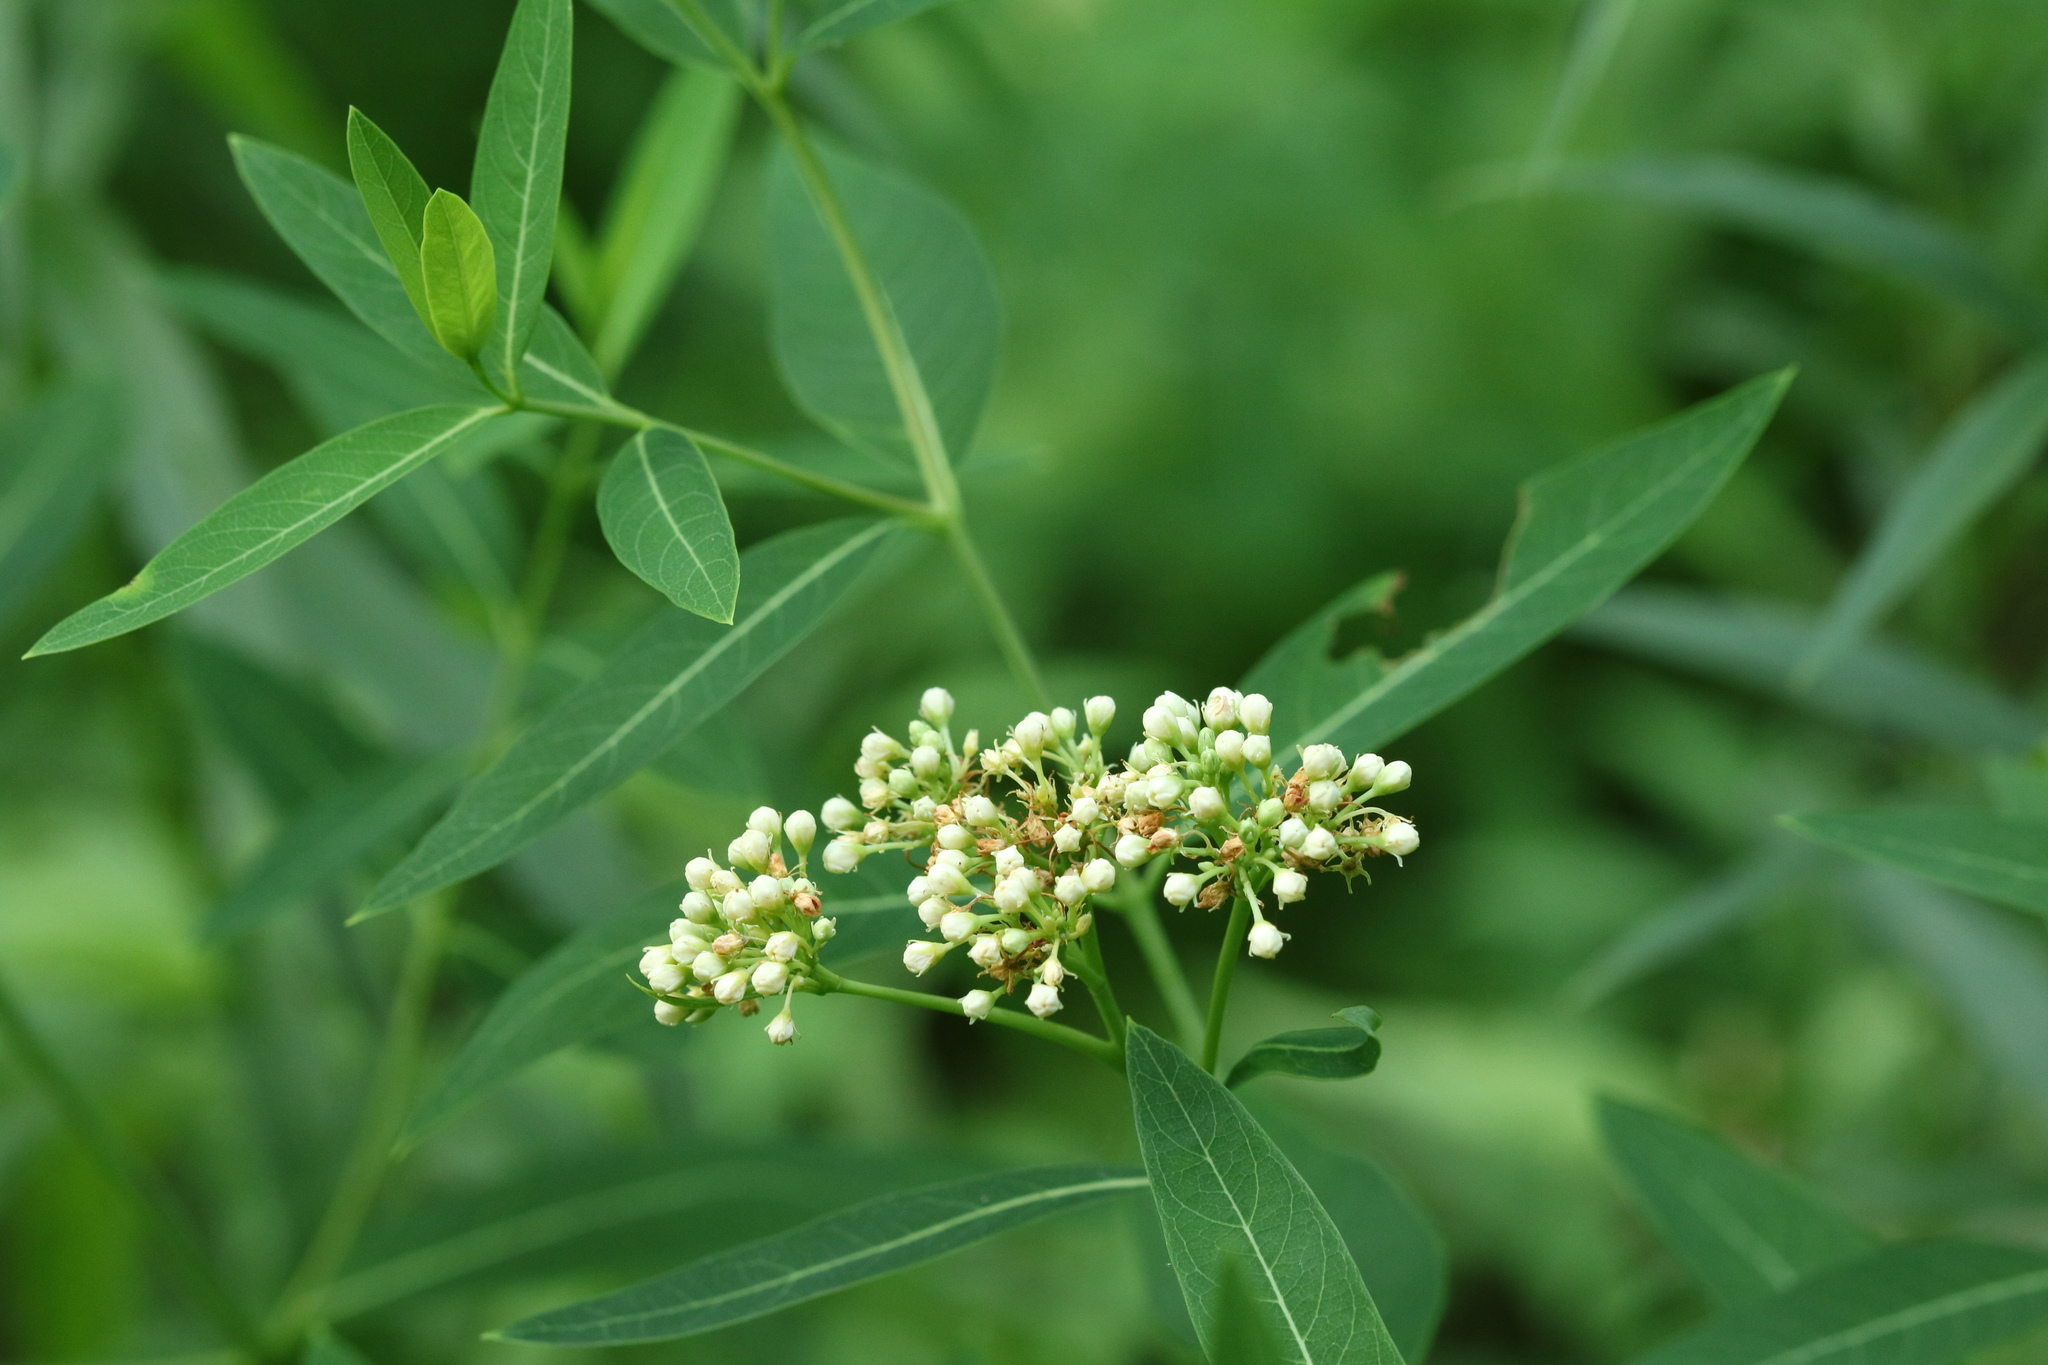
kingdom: Plantae
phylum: Tracheophyta
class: Magnoliopsida
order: Gentianales
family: Apocynaceae
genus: Apocynum
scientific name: Apocynum cannabinum
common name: Hemp dogbane
